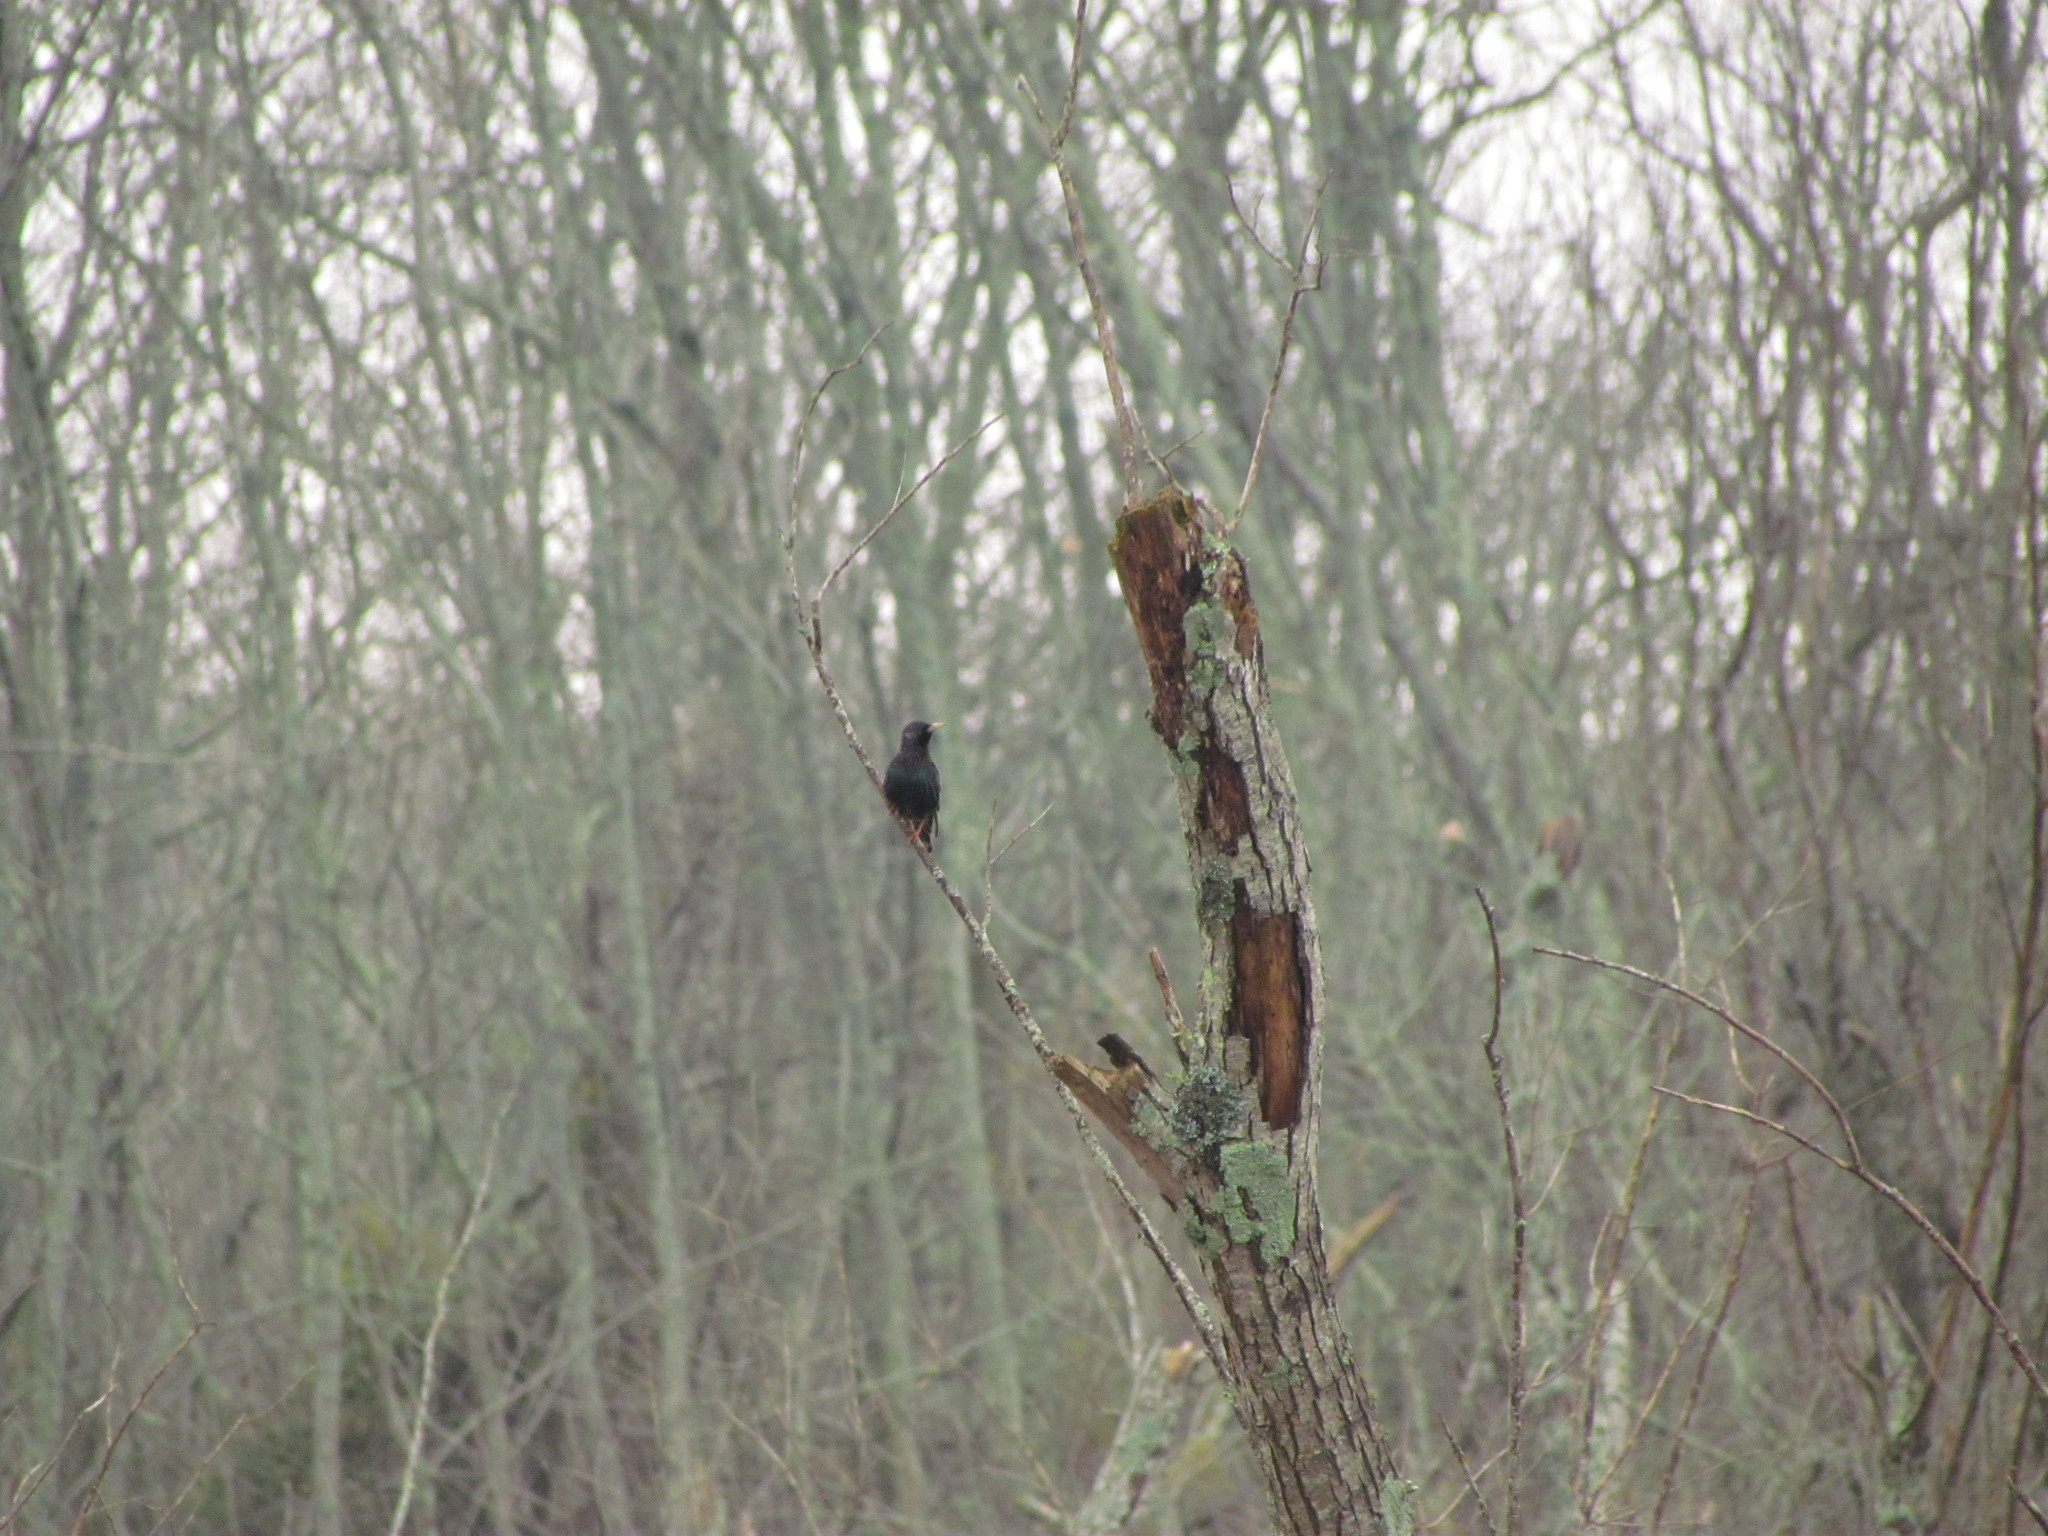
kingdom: Animalia
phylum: Chordata
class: Aves
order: Passeriformes
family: Sturnidae
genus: Sturnus
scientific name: Sturnus vulgaris
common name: Common starling
